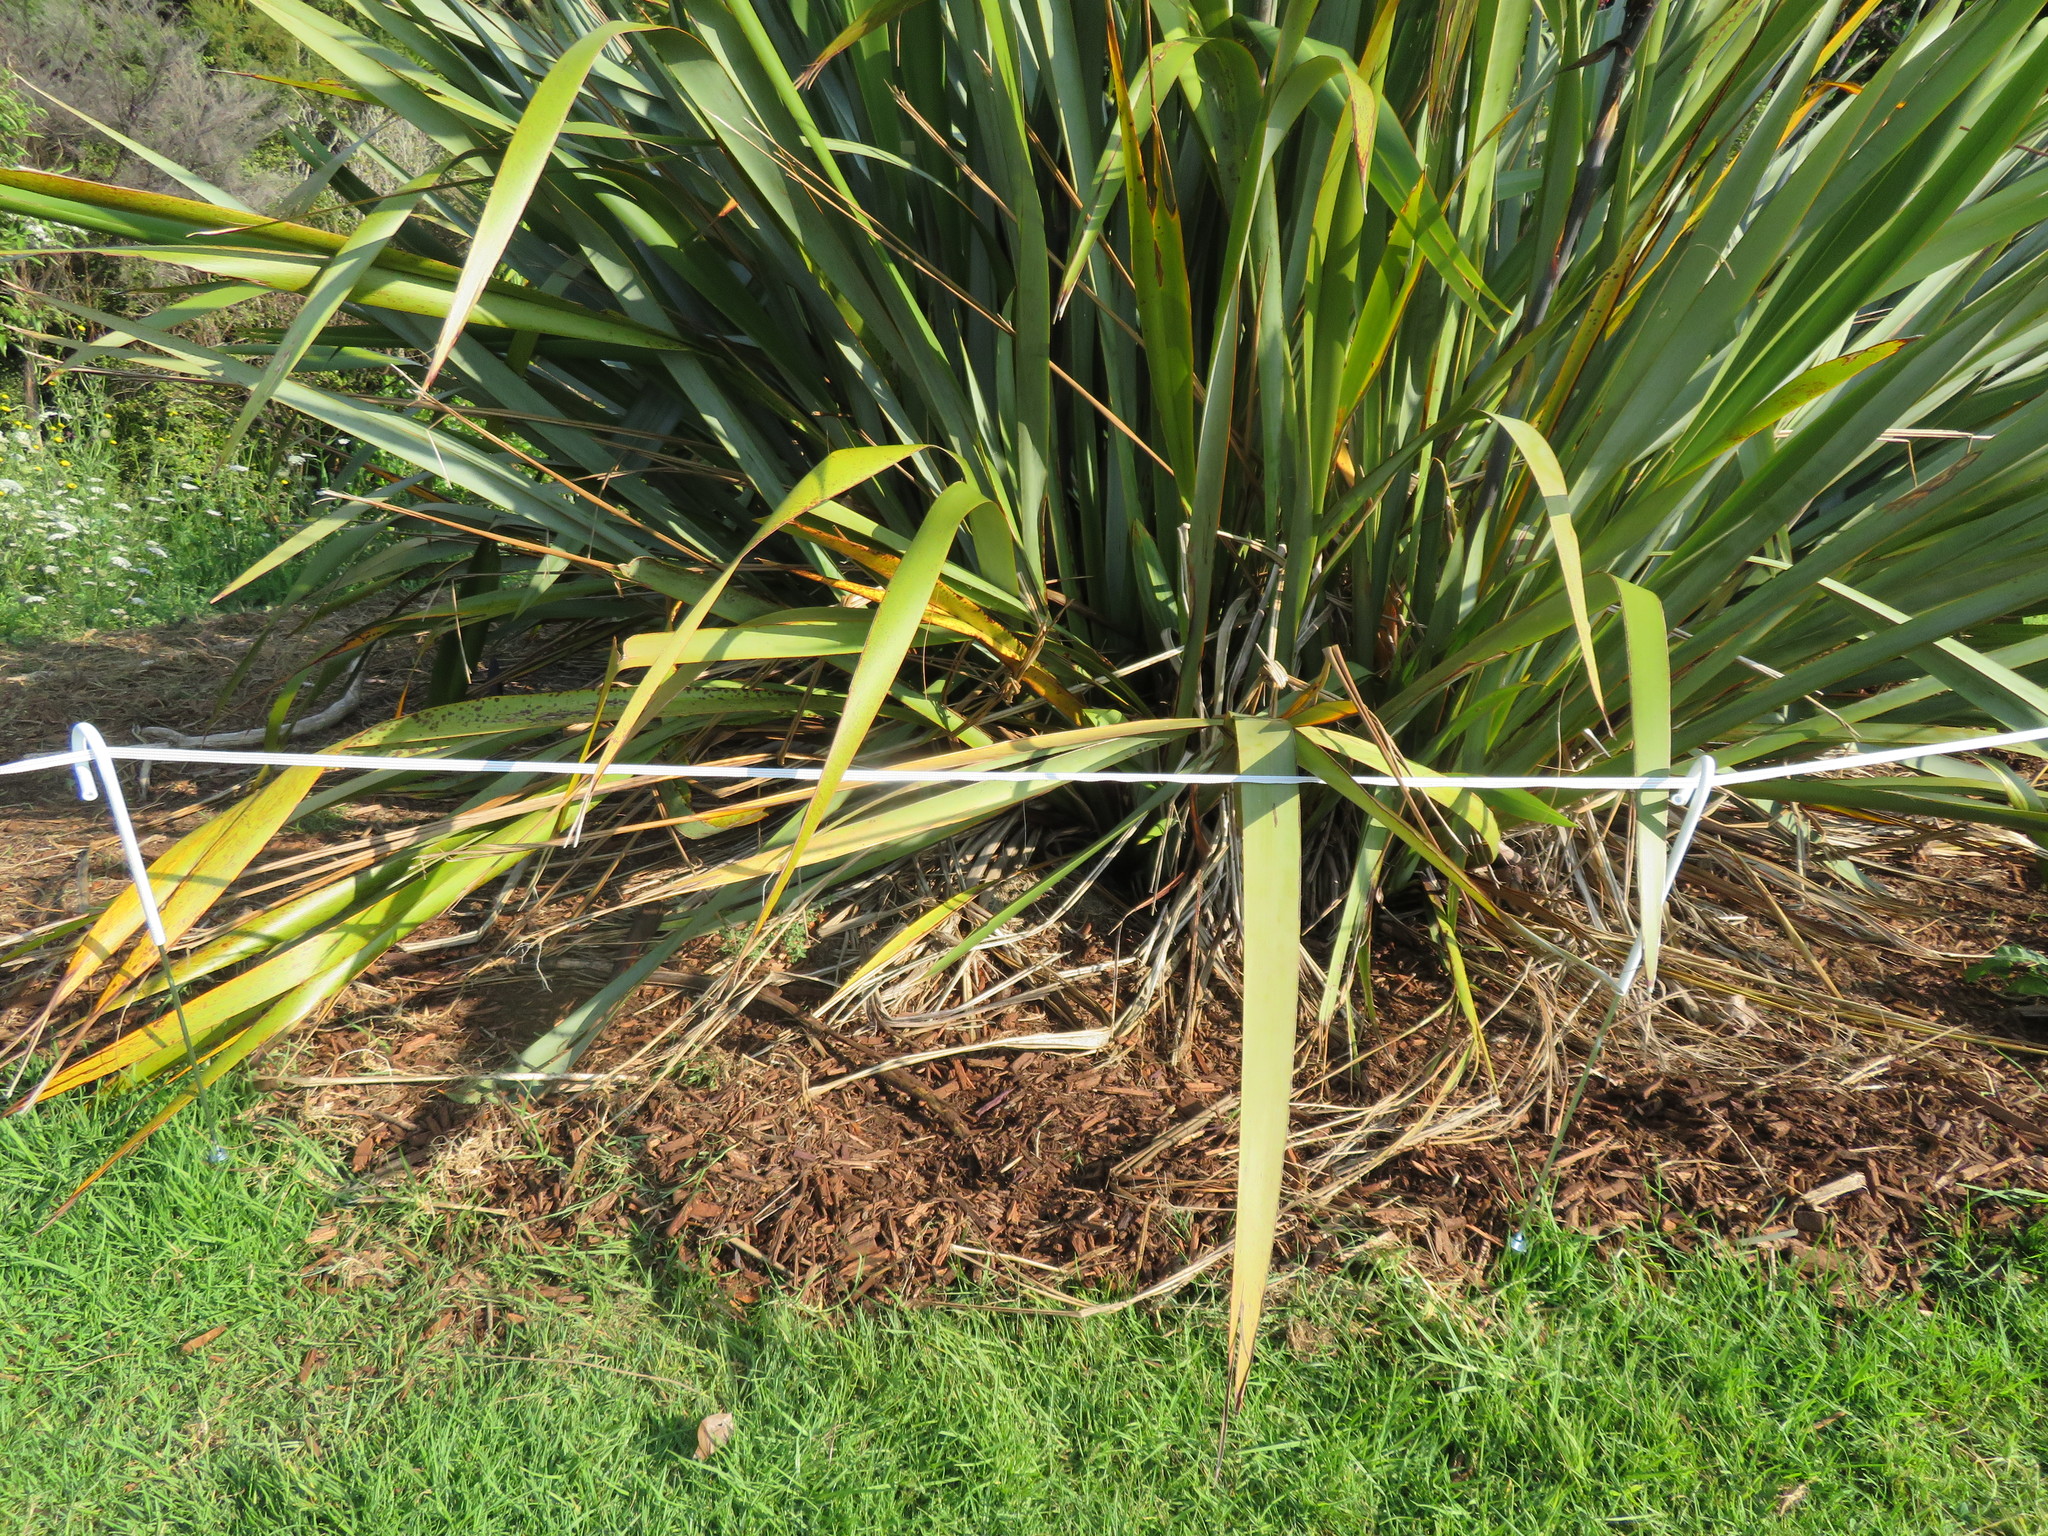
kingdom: Plantae
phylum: Tracheophyta
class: Liliopsida
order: Asparagales
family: Asphodelaceae
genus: Phormium
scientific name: Phormium tenax
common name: New zealand flax
